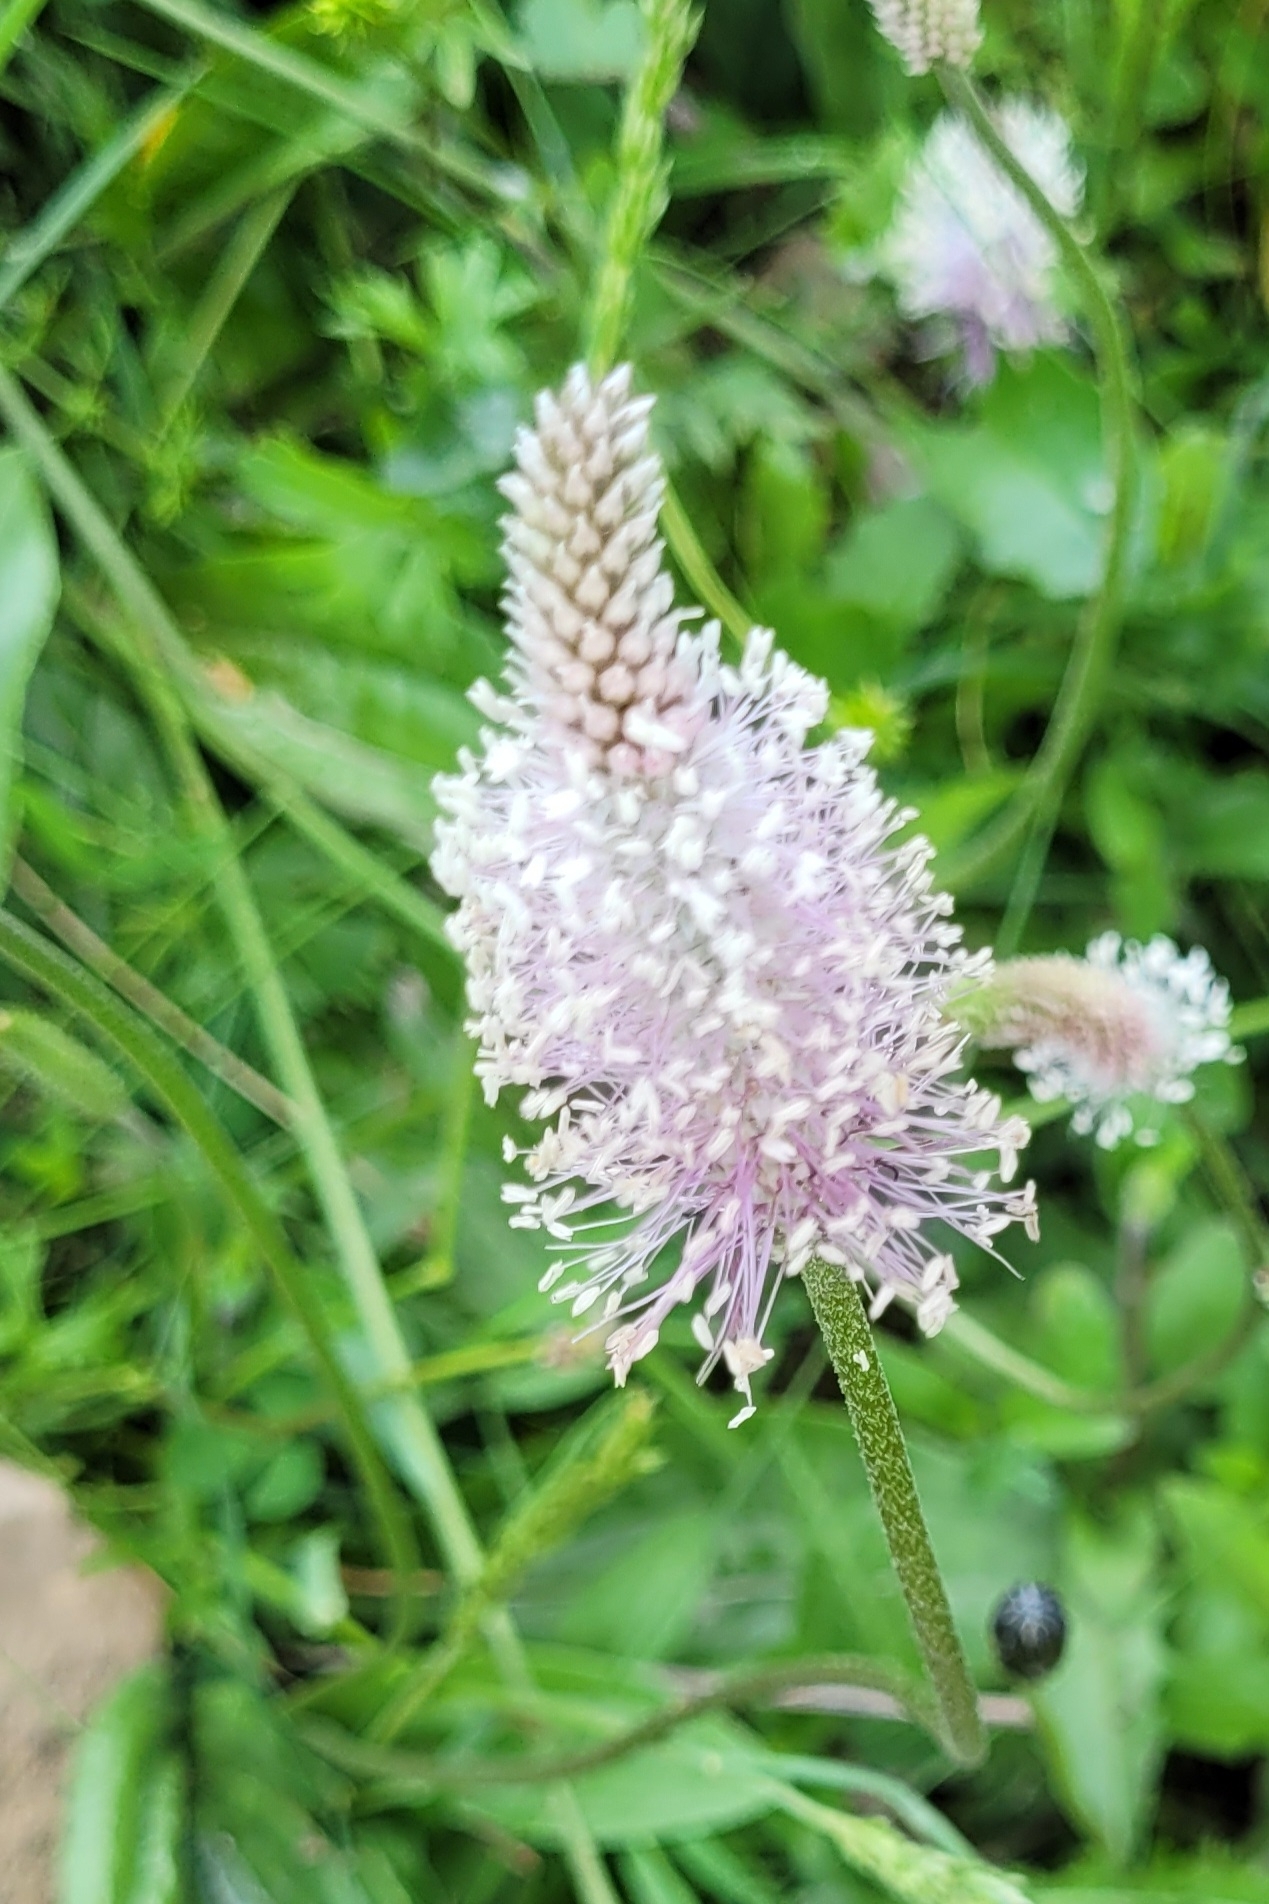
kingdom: Plantae
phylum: Tracheophyta
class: Magnoliopsida
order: Lamiales
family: Plantaginaceae
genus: Plantago
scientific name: Plantago media
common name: Hoary plantain
